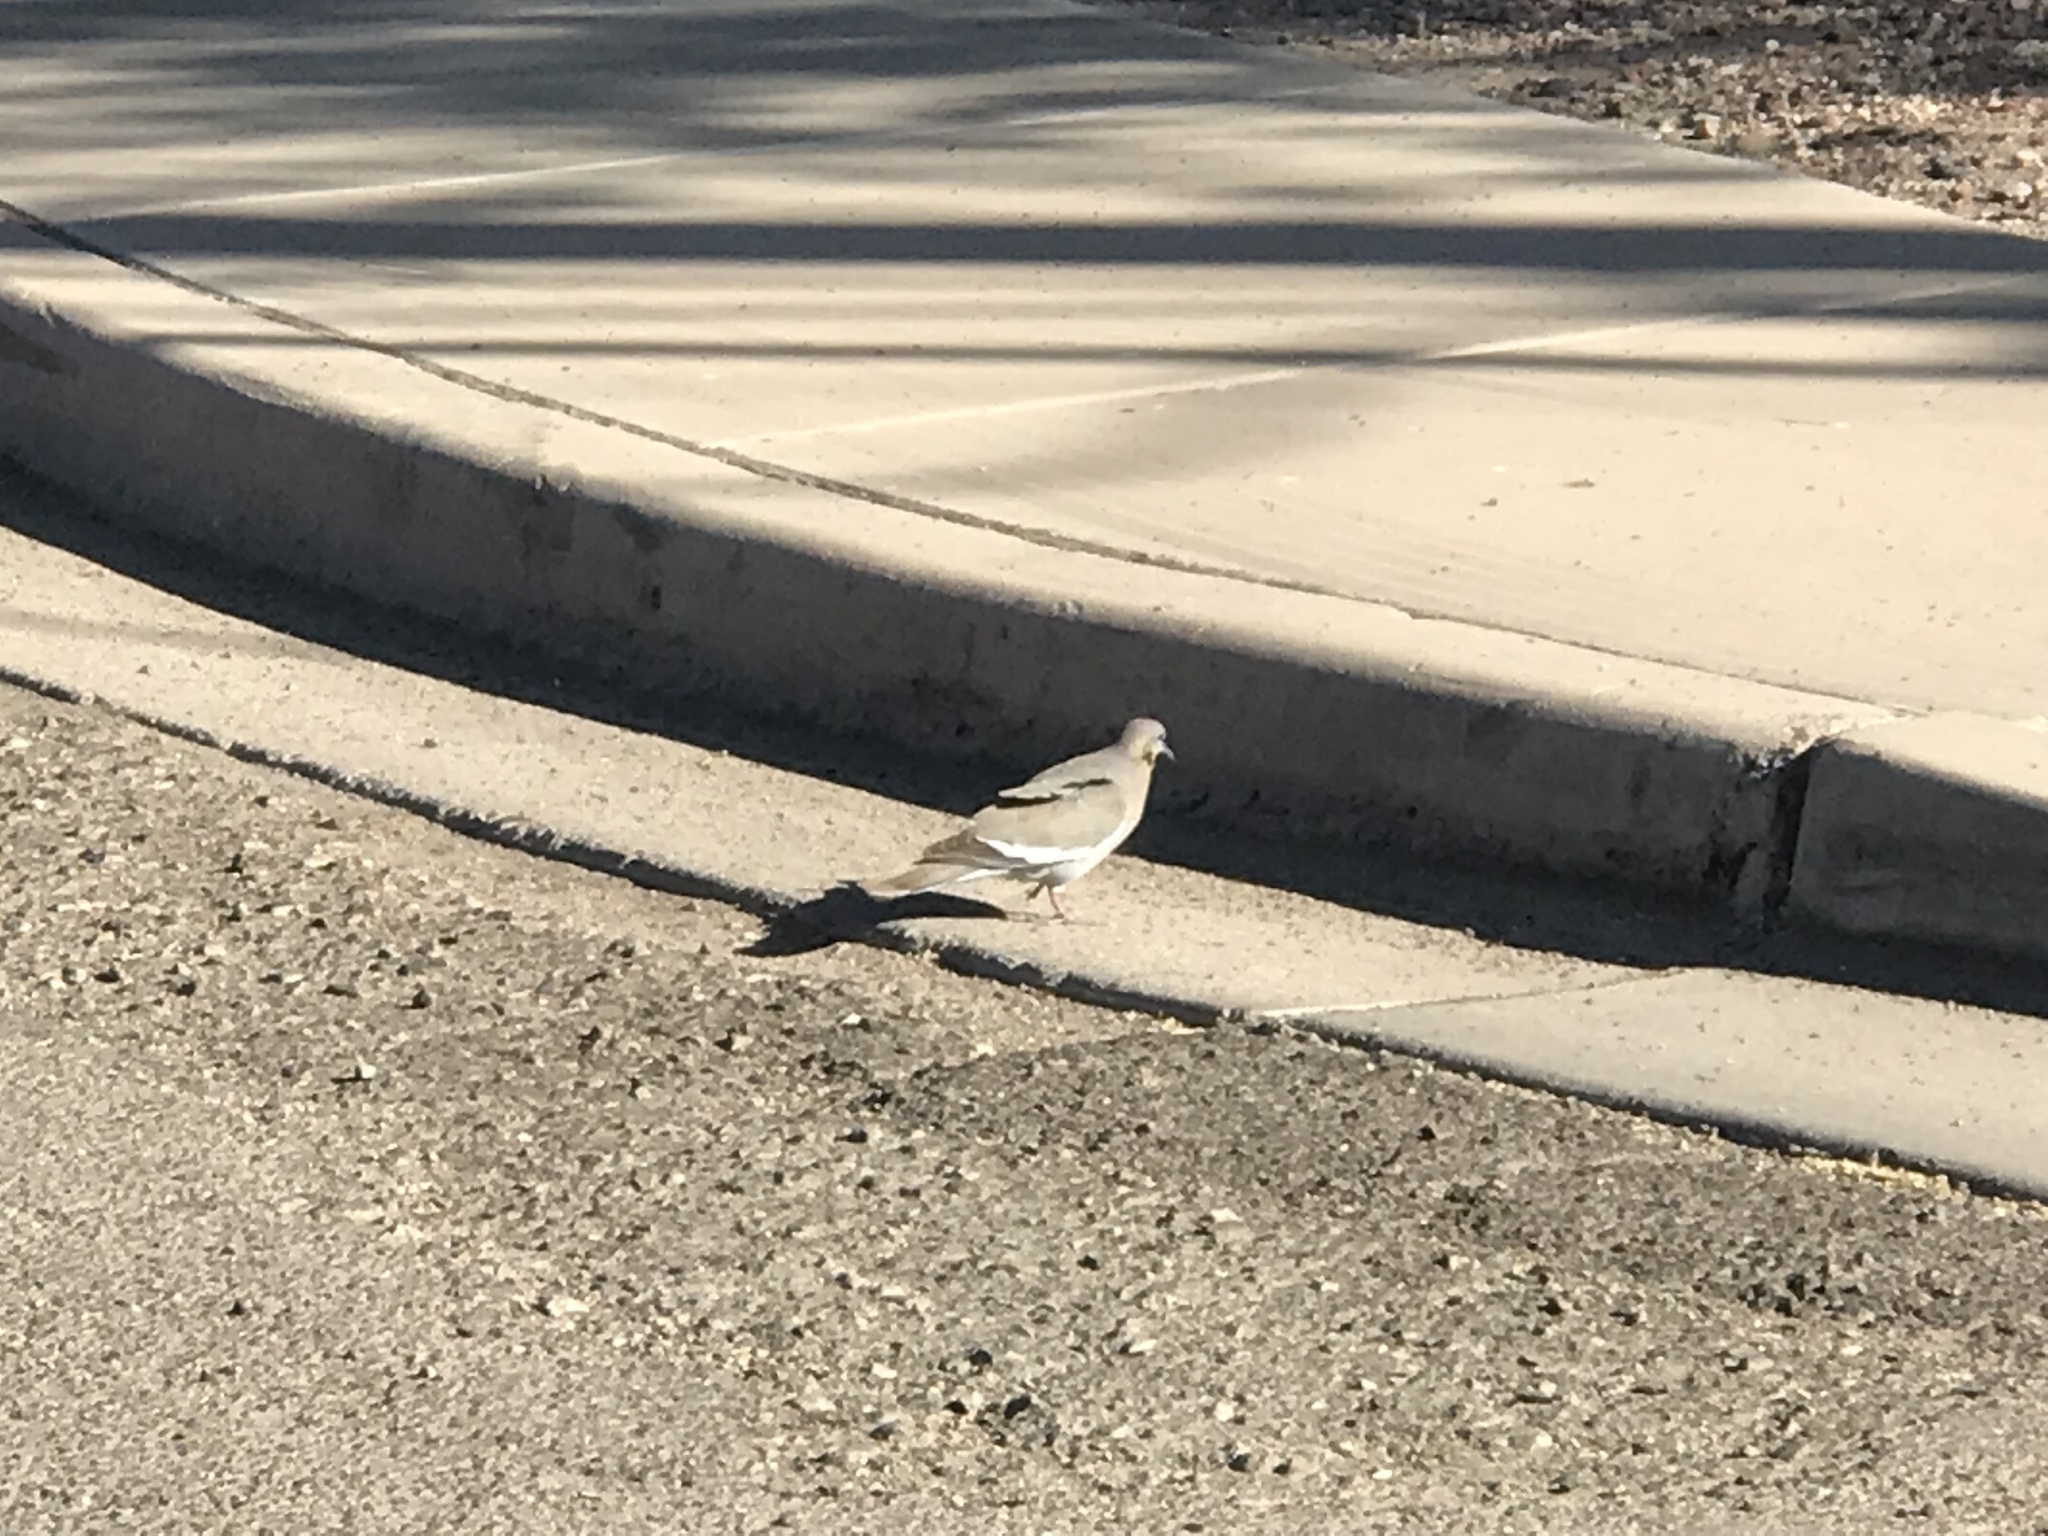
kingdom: Animalia
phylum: Chordata
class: Aves
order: Columbiformes
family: Columbidae
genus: Zenaida
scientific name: Zenaida asiatica
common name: White-winged dove
